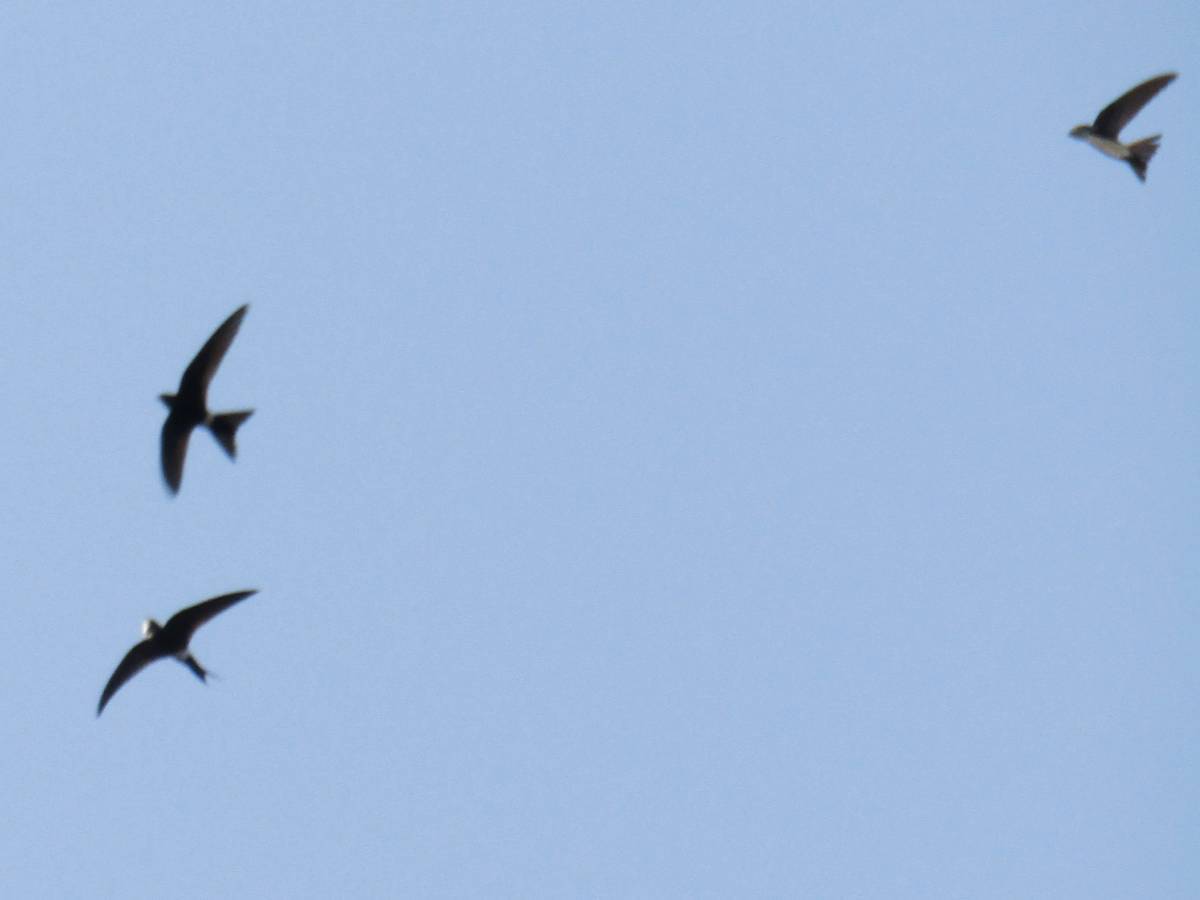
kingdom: Animalia
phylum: Chordata
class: Aves
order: Apodiformes
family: Apodidae
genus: Apus
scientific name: Apus pacificus
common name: Pacific swift
